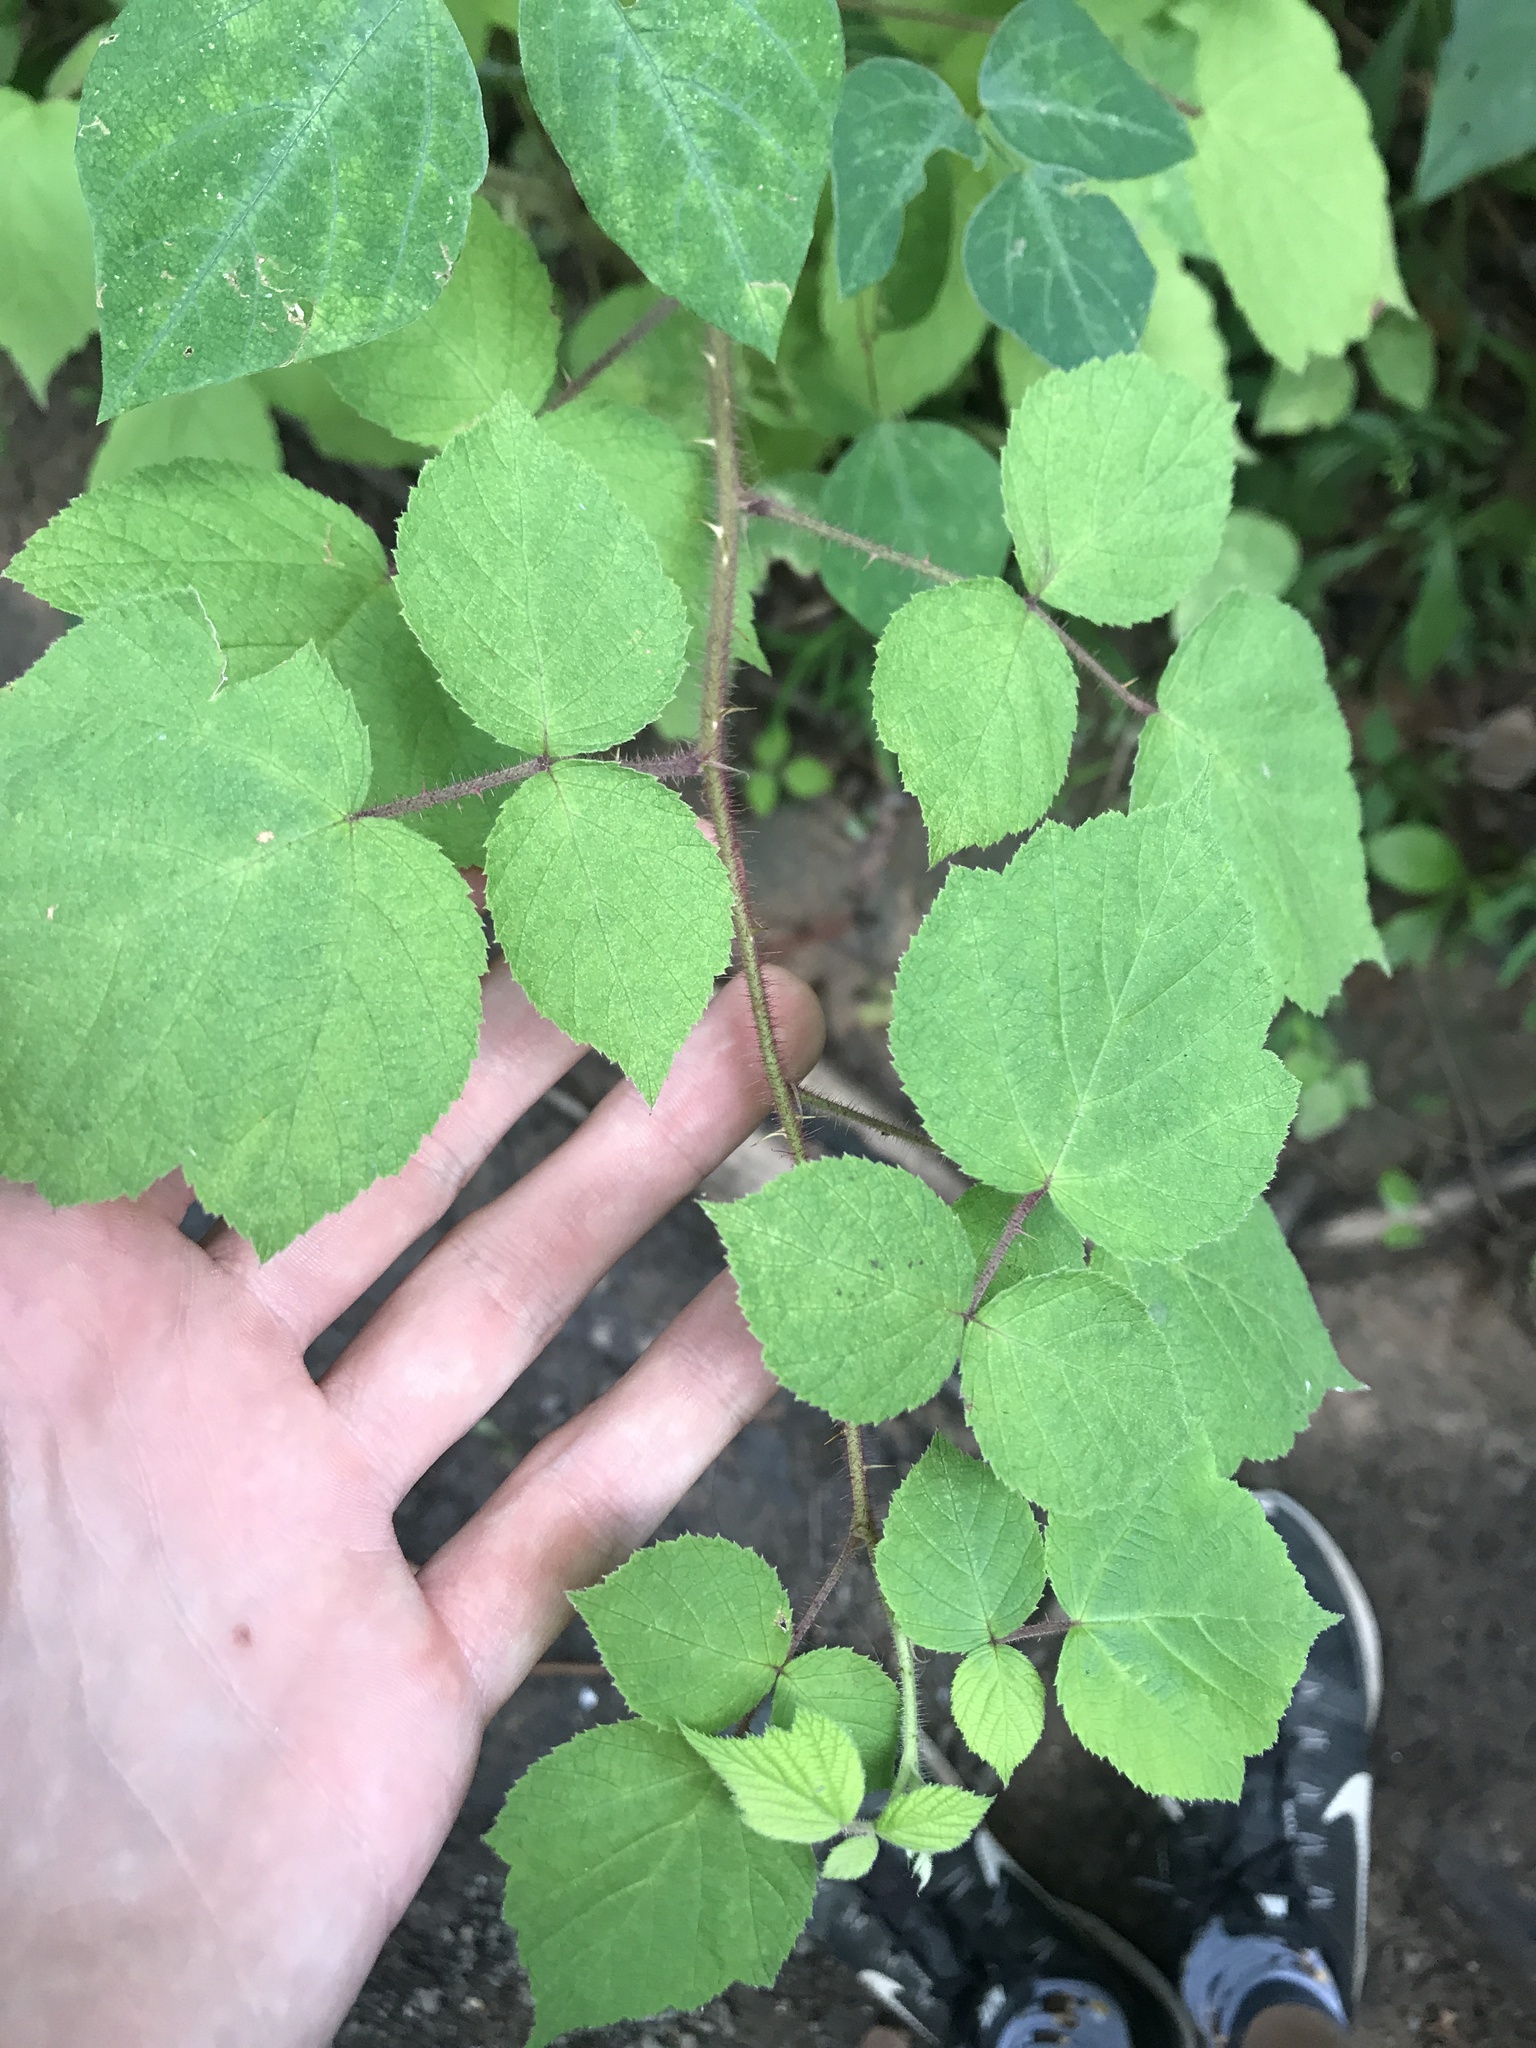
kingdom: Plantae
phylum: Tracheophyta
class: Magnoliopsida
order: Rosales
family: Rosaceae
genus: Rubus
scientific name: Rubus phoenicolasius
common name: Japanese wineberry
